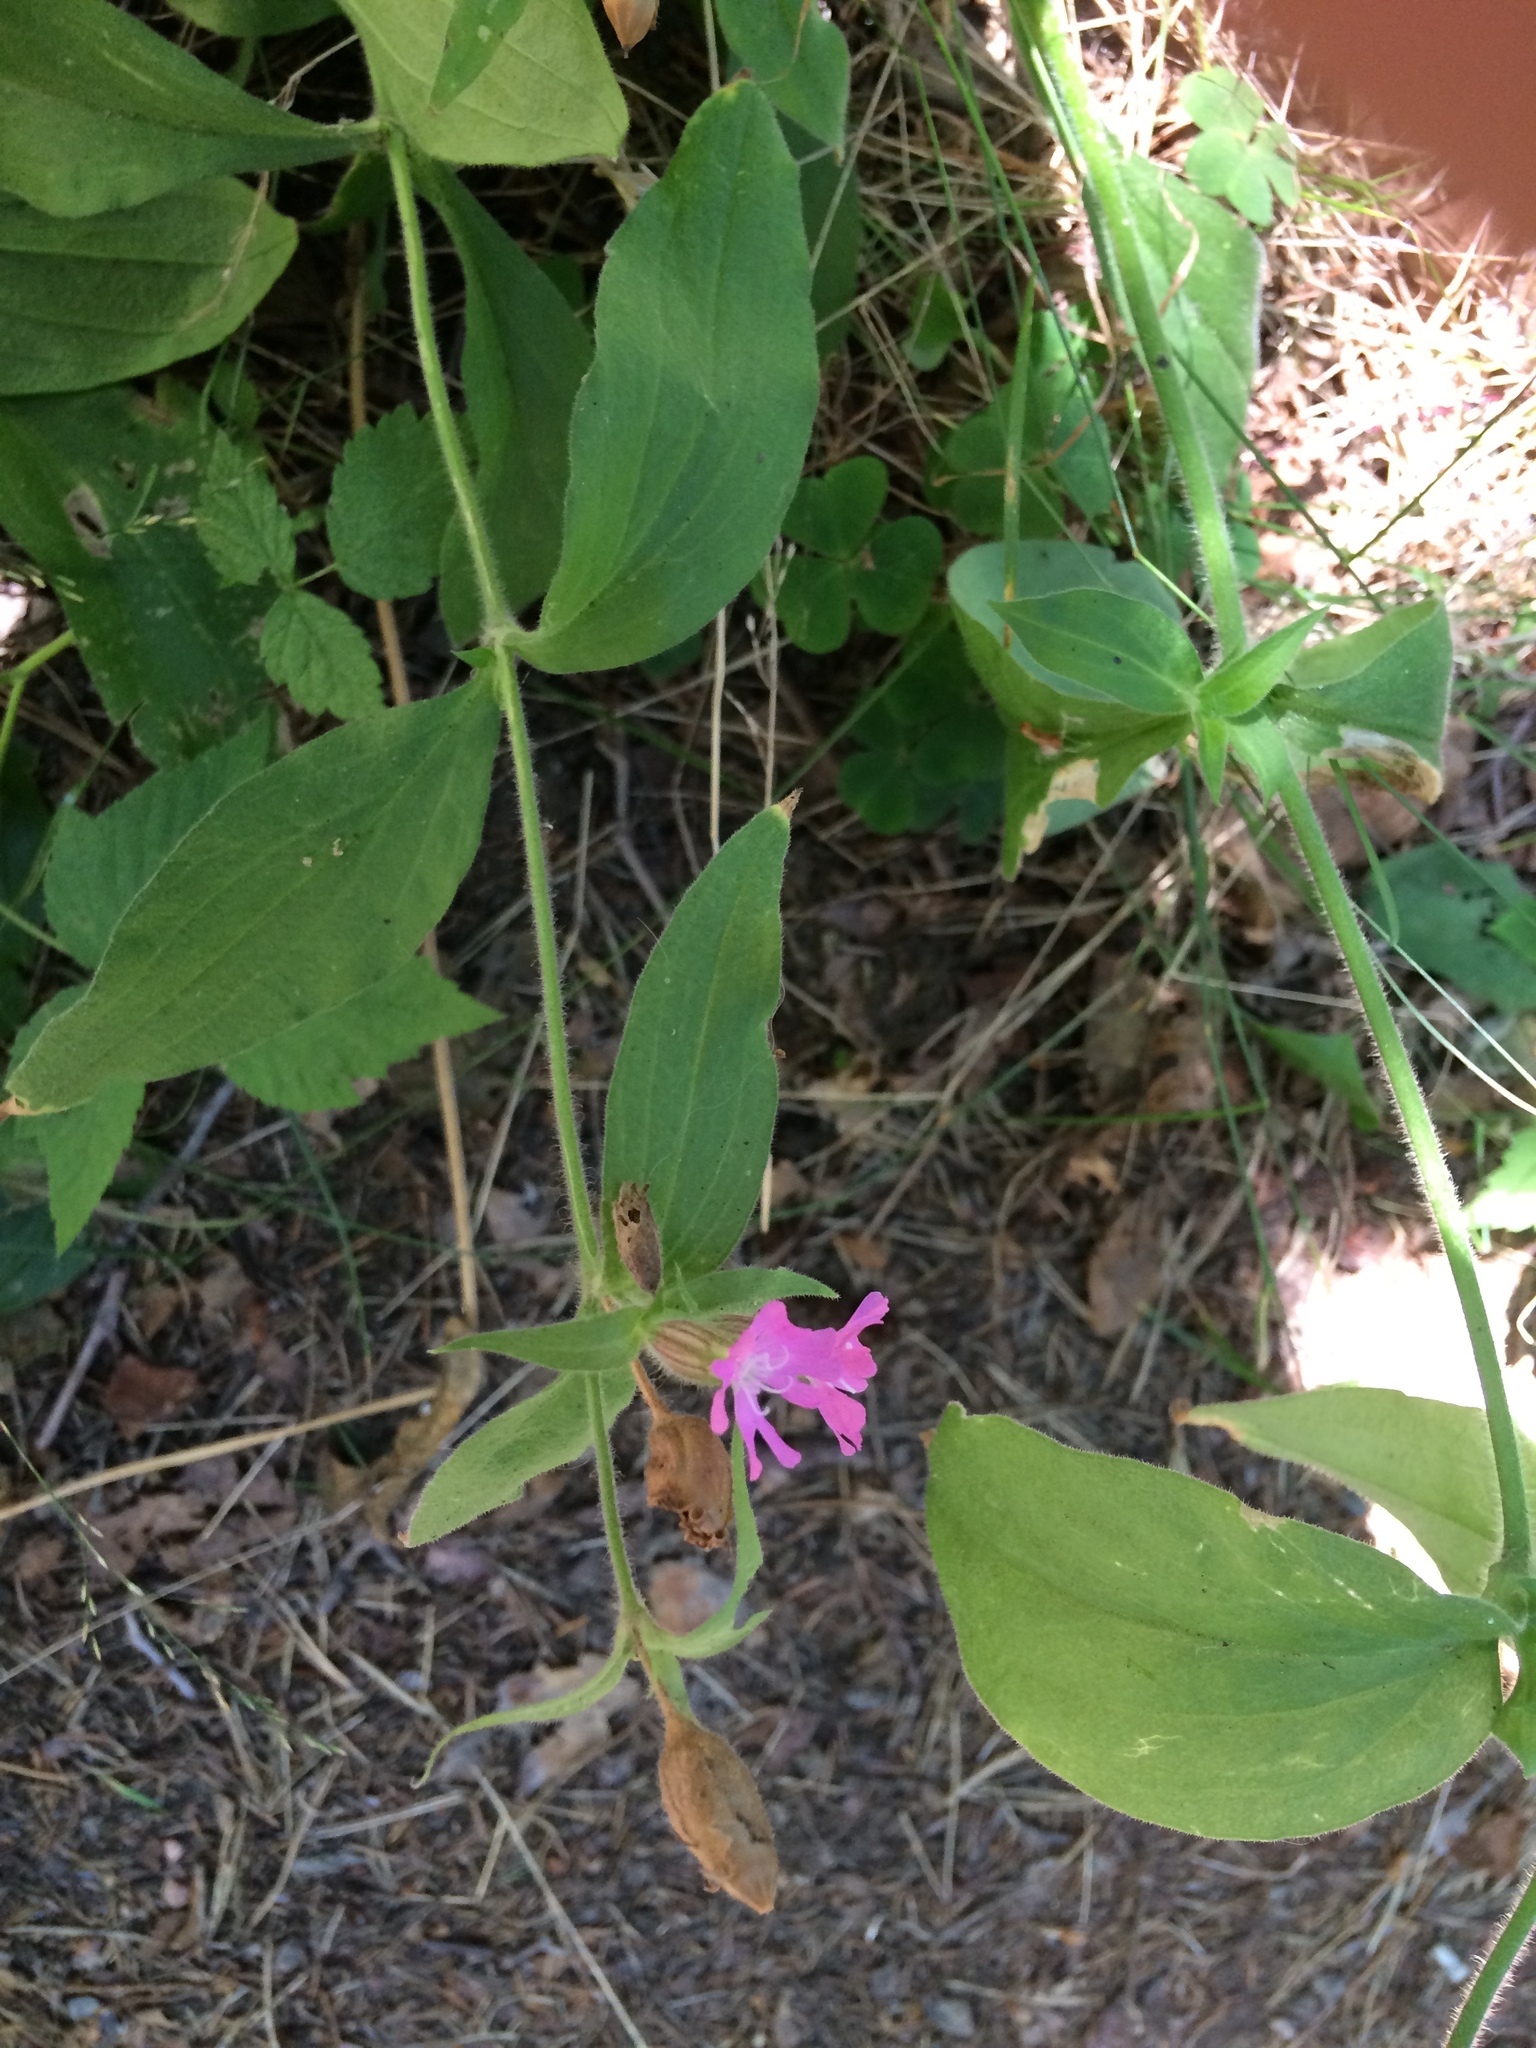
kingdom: Plantae
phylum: Tracheophyta
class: Magnoliopsida
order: Caryophyllales
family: Caryophyllaceae
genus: Silene
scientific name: Silene dioica
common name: Red campion
